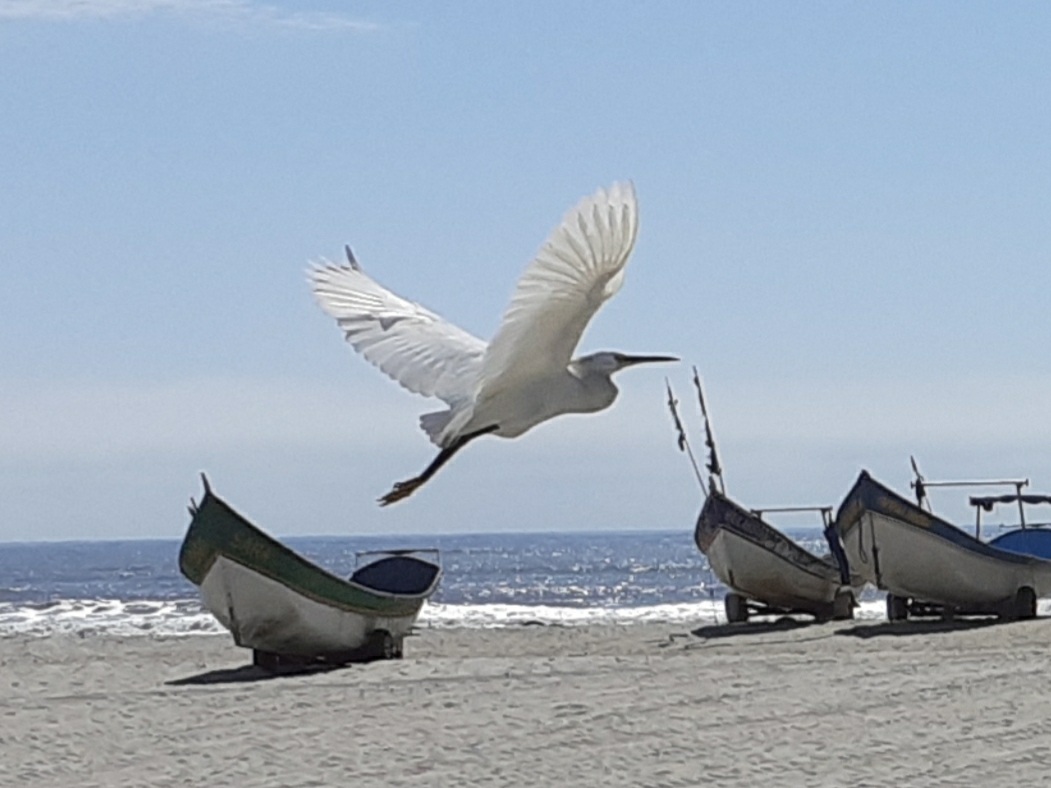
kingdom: Animalia
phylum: Chordata
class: Aves
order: Pelecaniformes
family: Ardeidae
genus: Egretta
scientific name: Egretta thula
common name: Snowy egret
